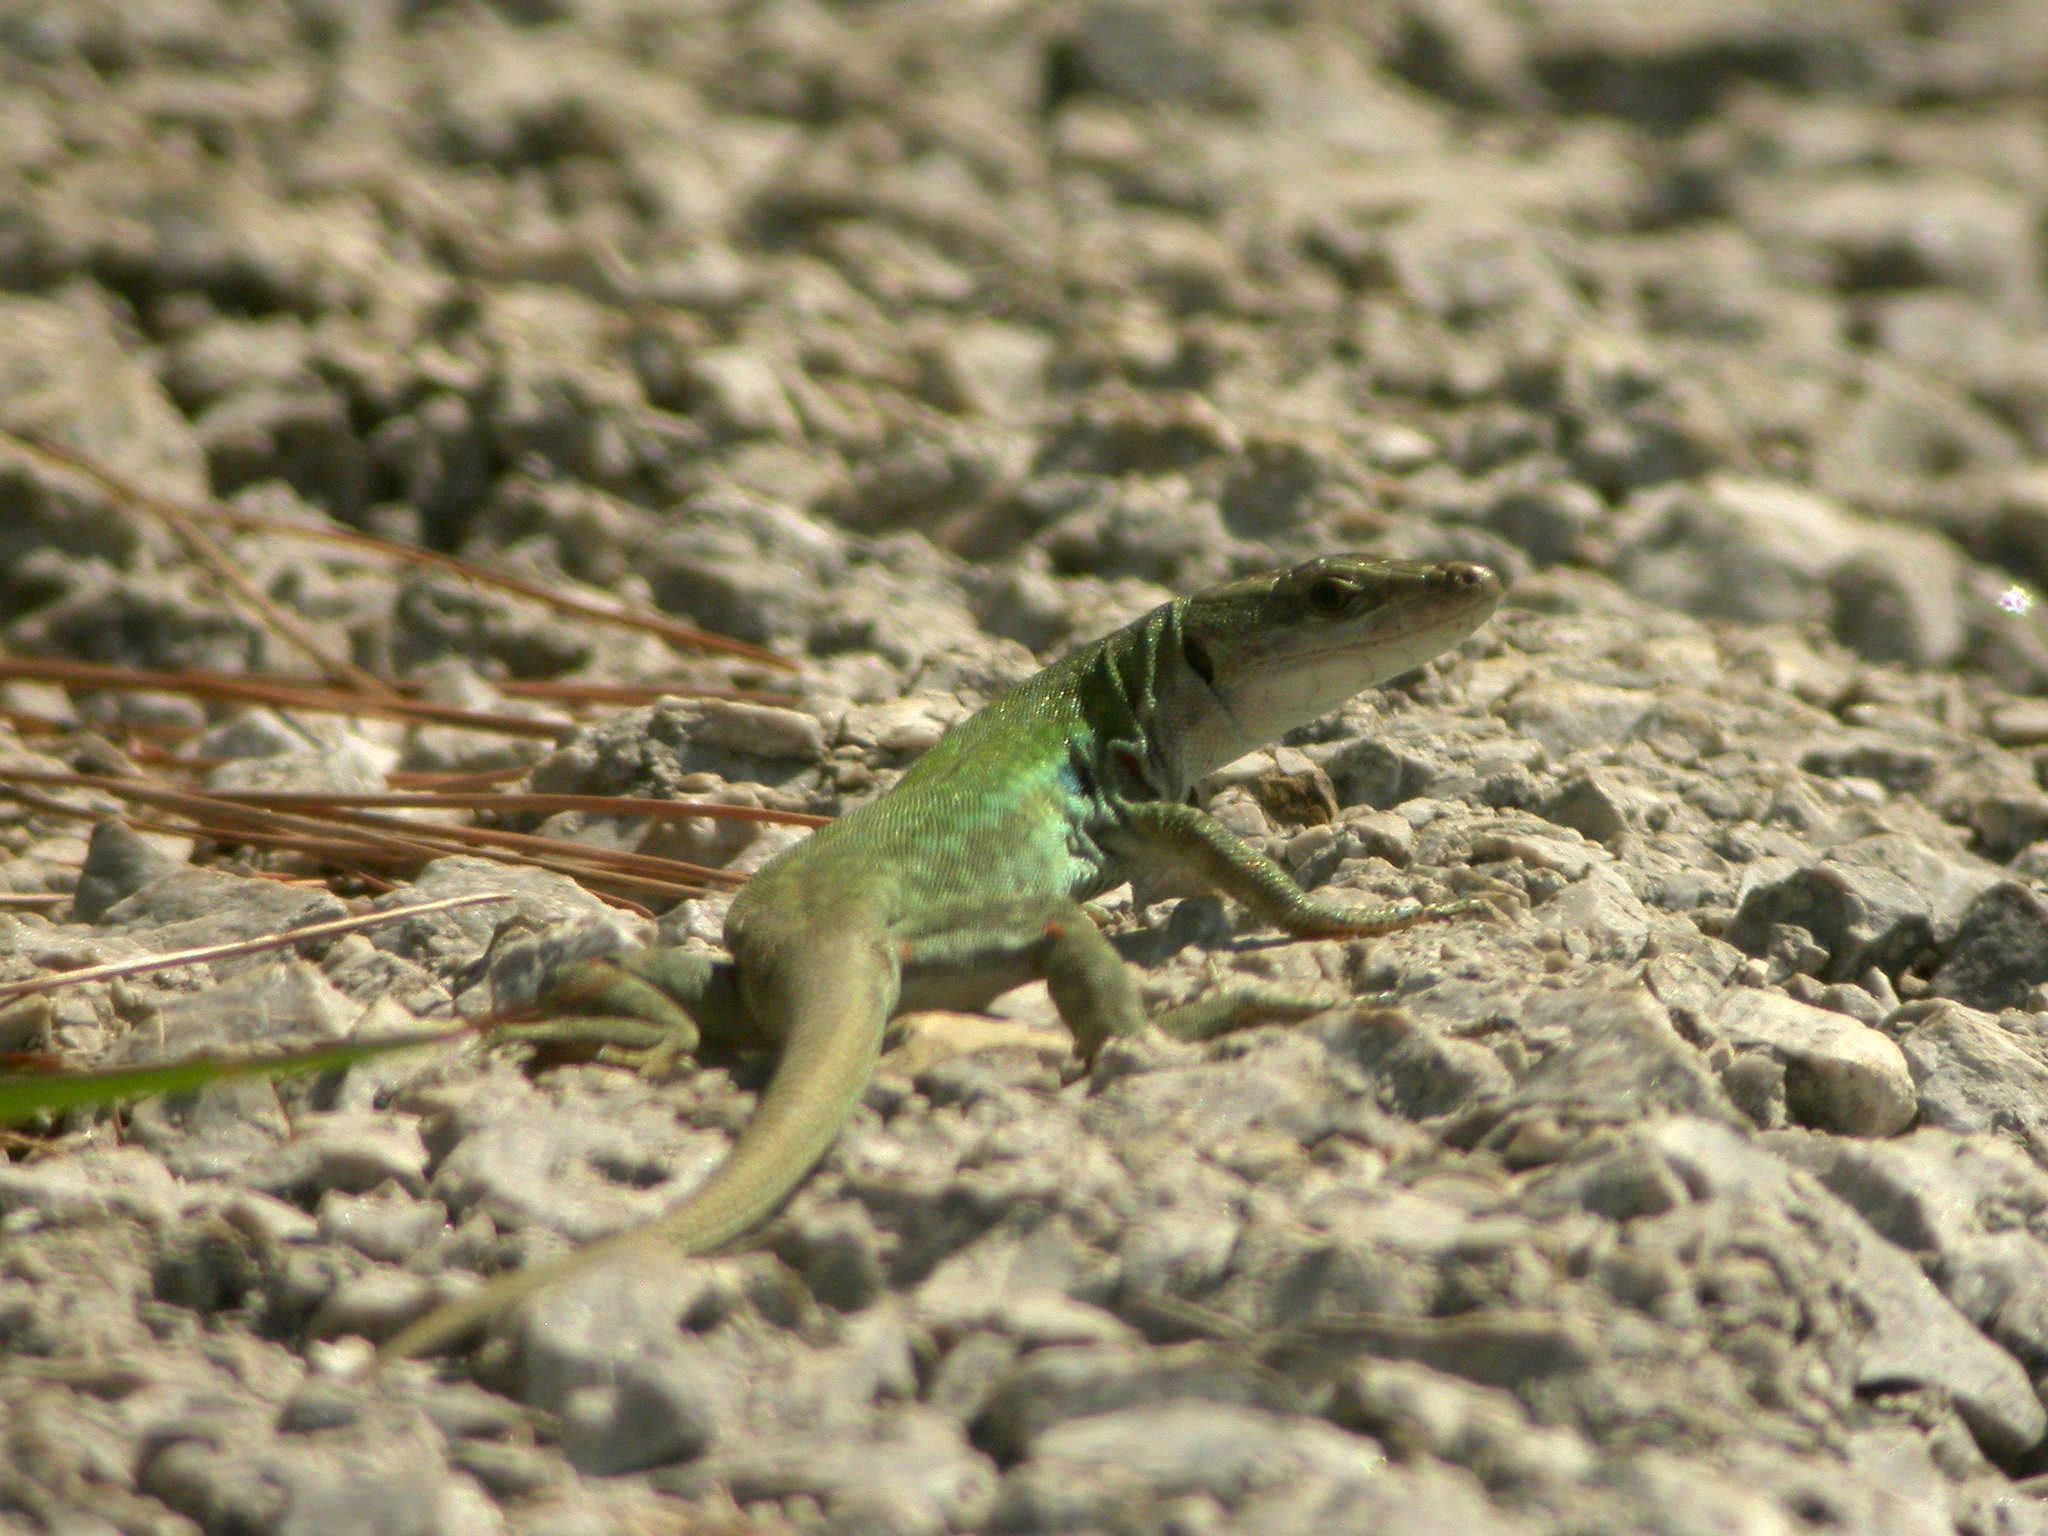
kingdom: Animalia
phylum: Chordata
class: Squamata
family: Lacertidae
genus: Podarcis
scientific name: Podarcis siculus
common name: Italian wall lizard
